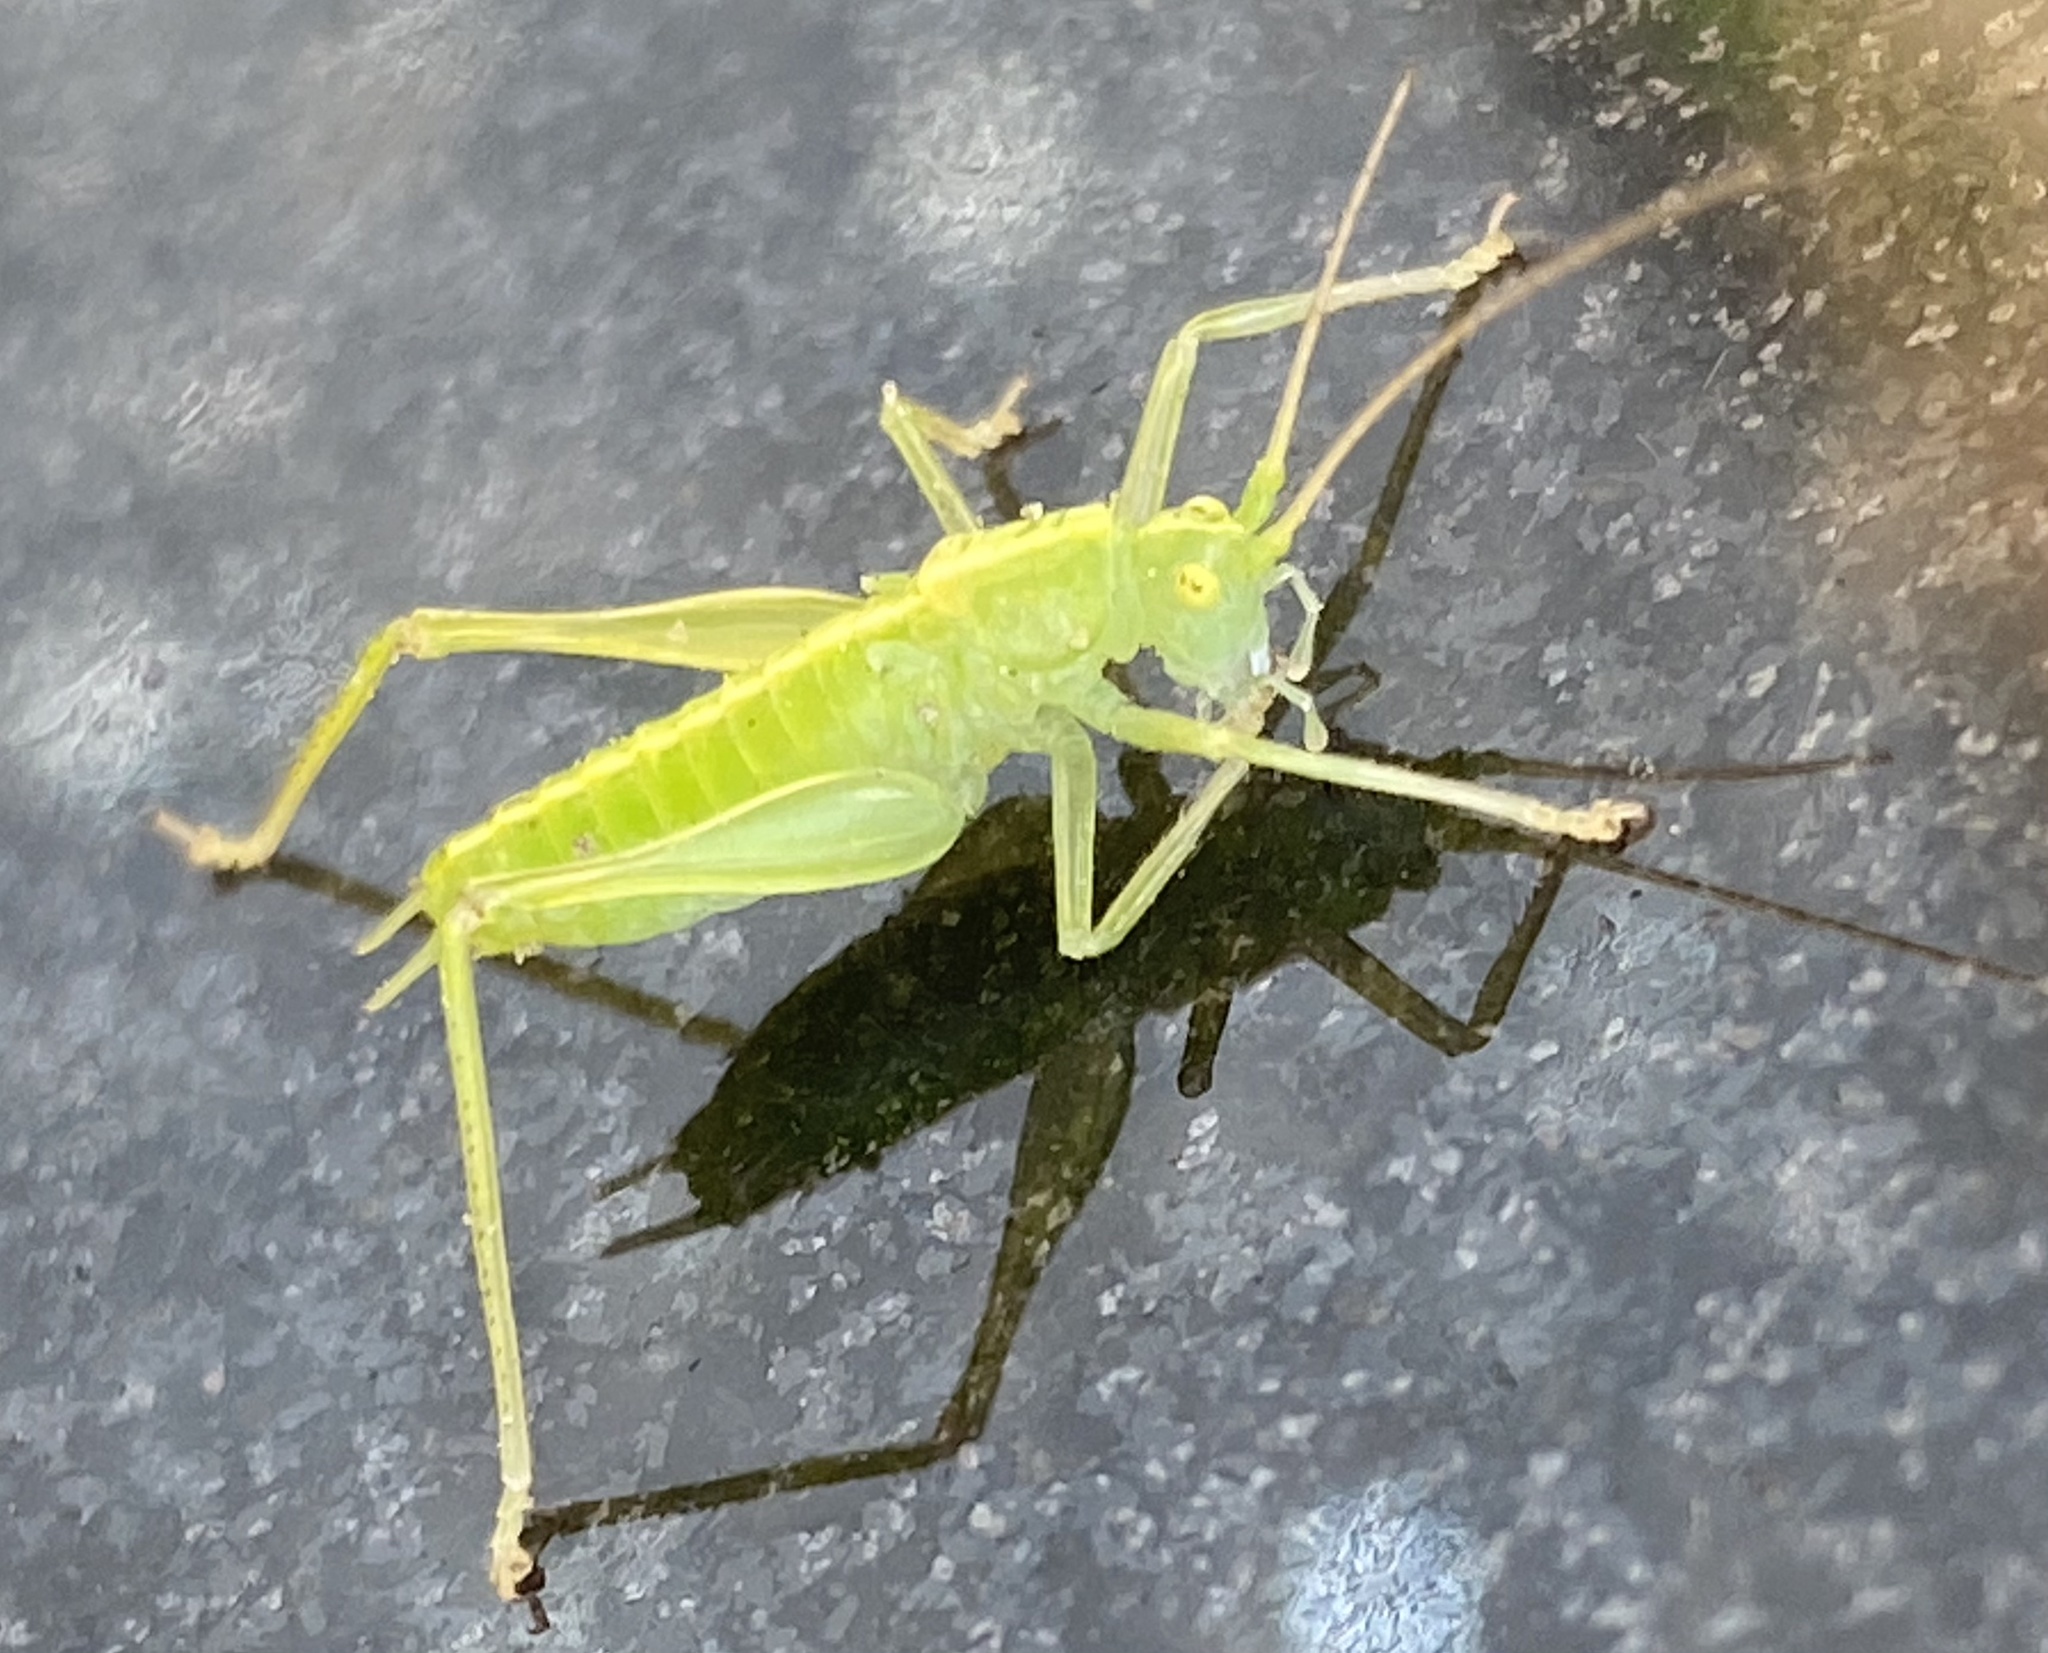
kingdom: Animalia
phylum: Arthropoda
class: Insecta
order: Orthoptera
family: Tettigoniidae
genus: Meconema
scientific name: Meconema meridionale
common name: Southern oak bush-cricket
